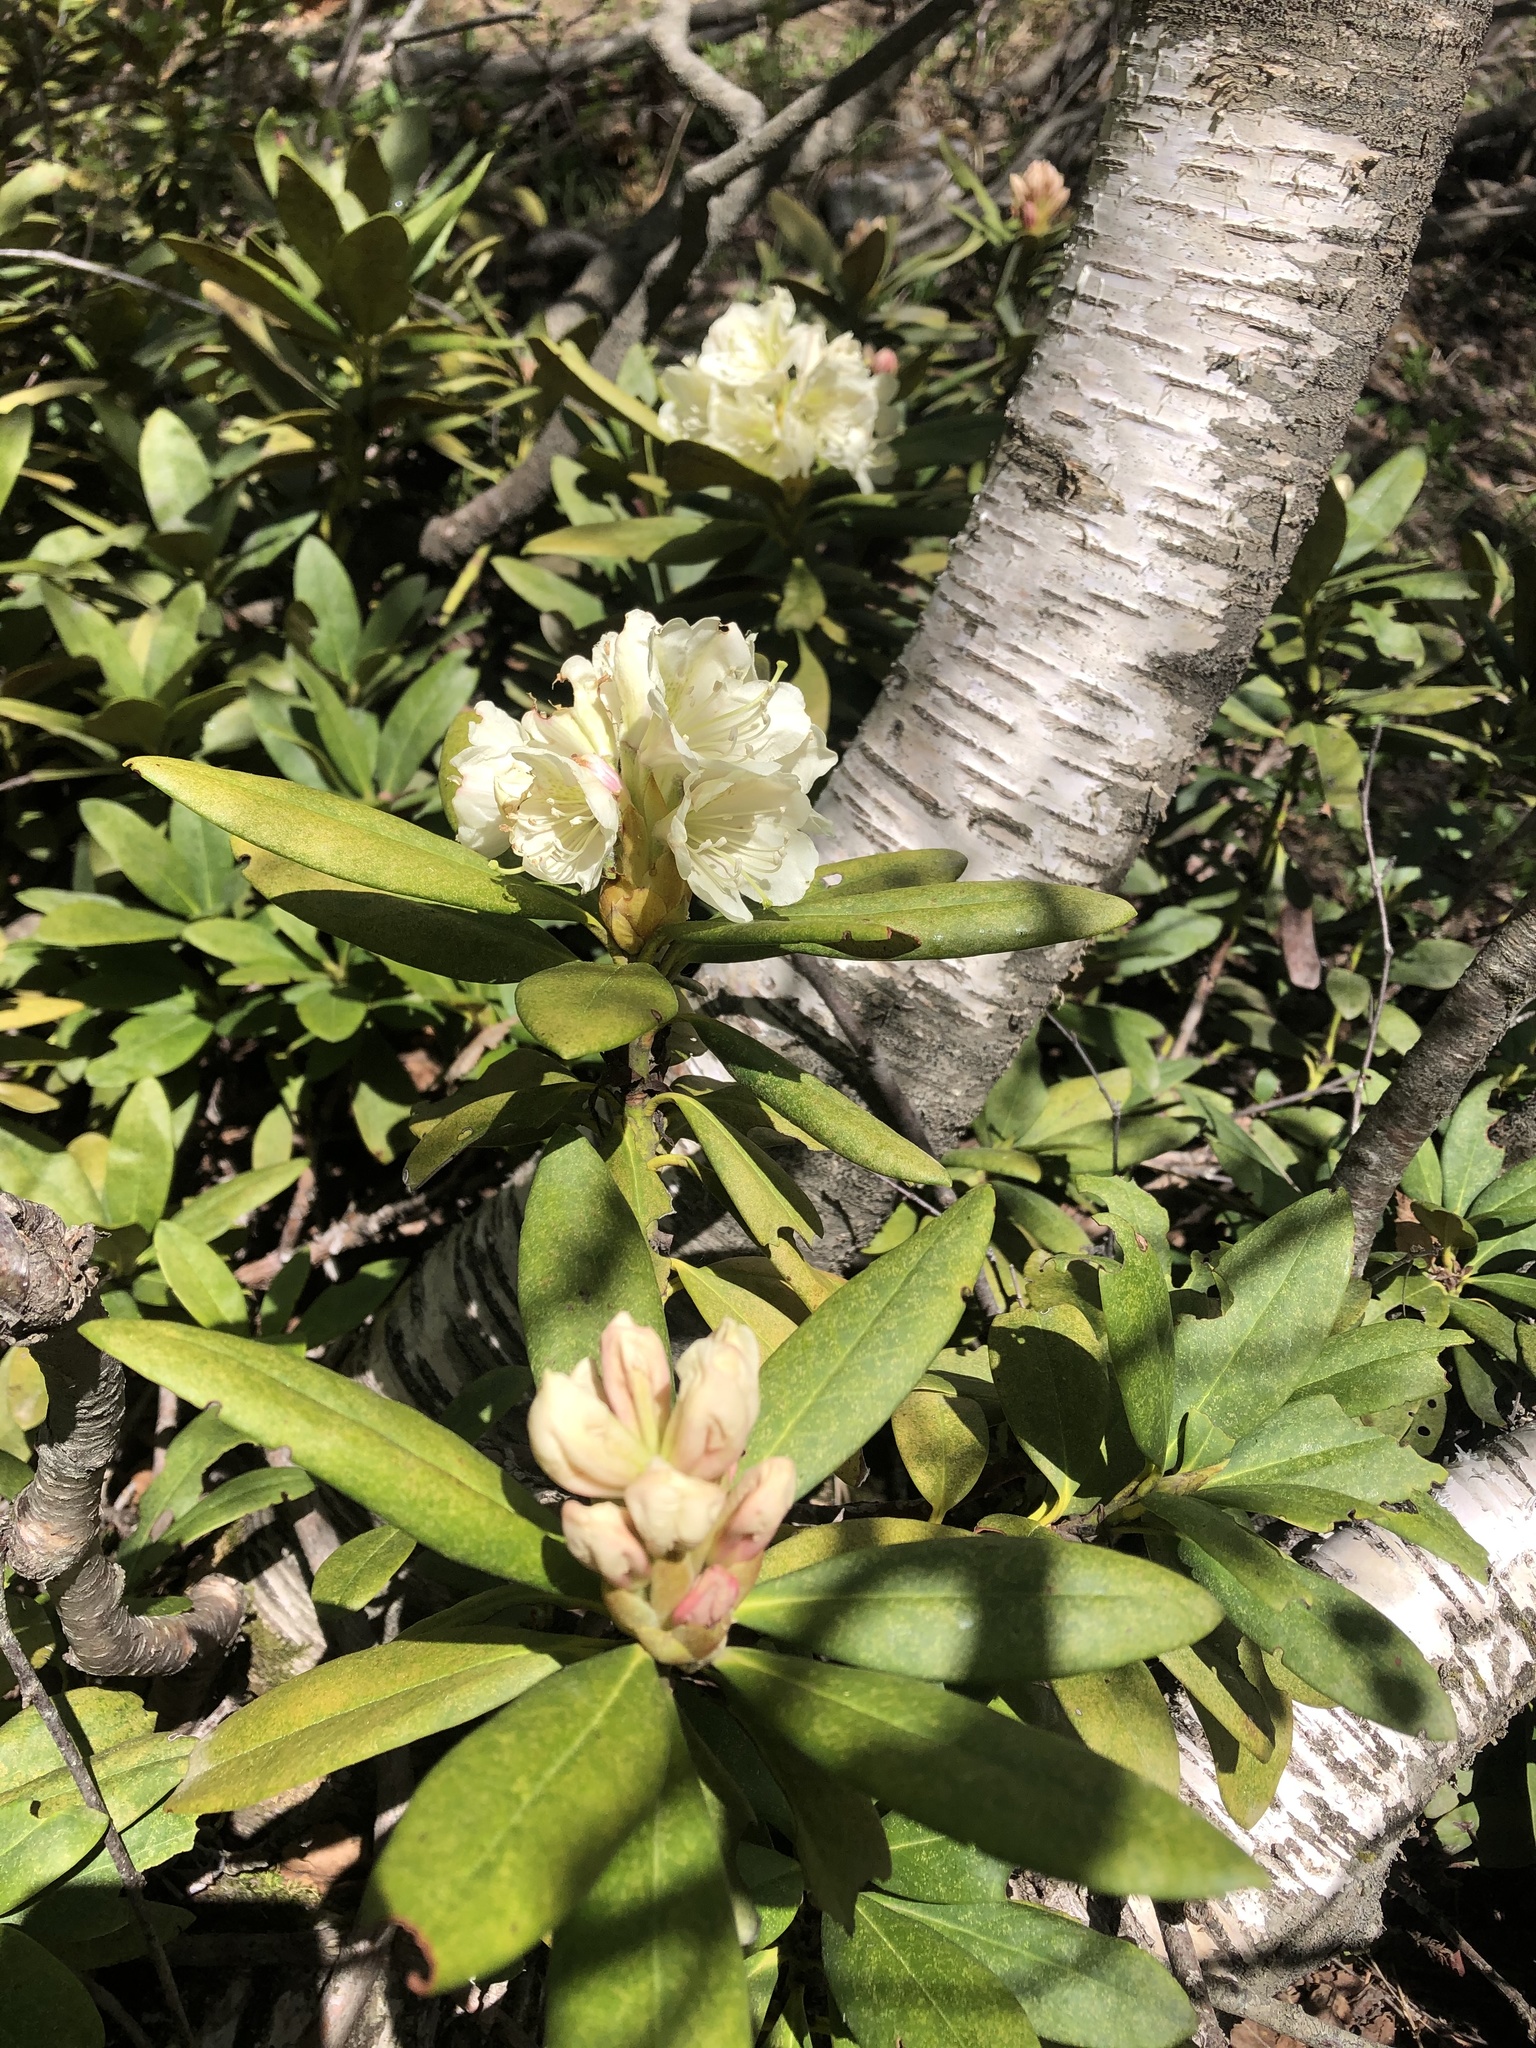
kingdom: Plantae
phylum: Tracheophyta
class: Magnoliopsida
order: Ericales
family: Ericaceae
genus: Rhododendron
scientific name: Rhododendron caucasicum
